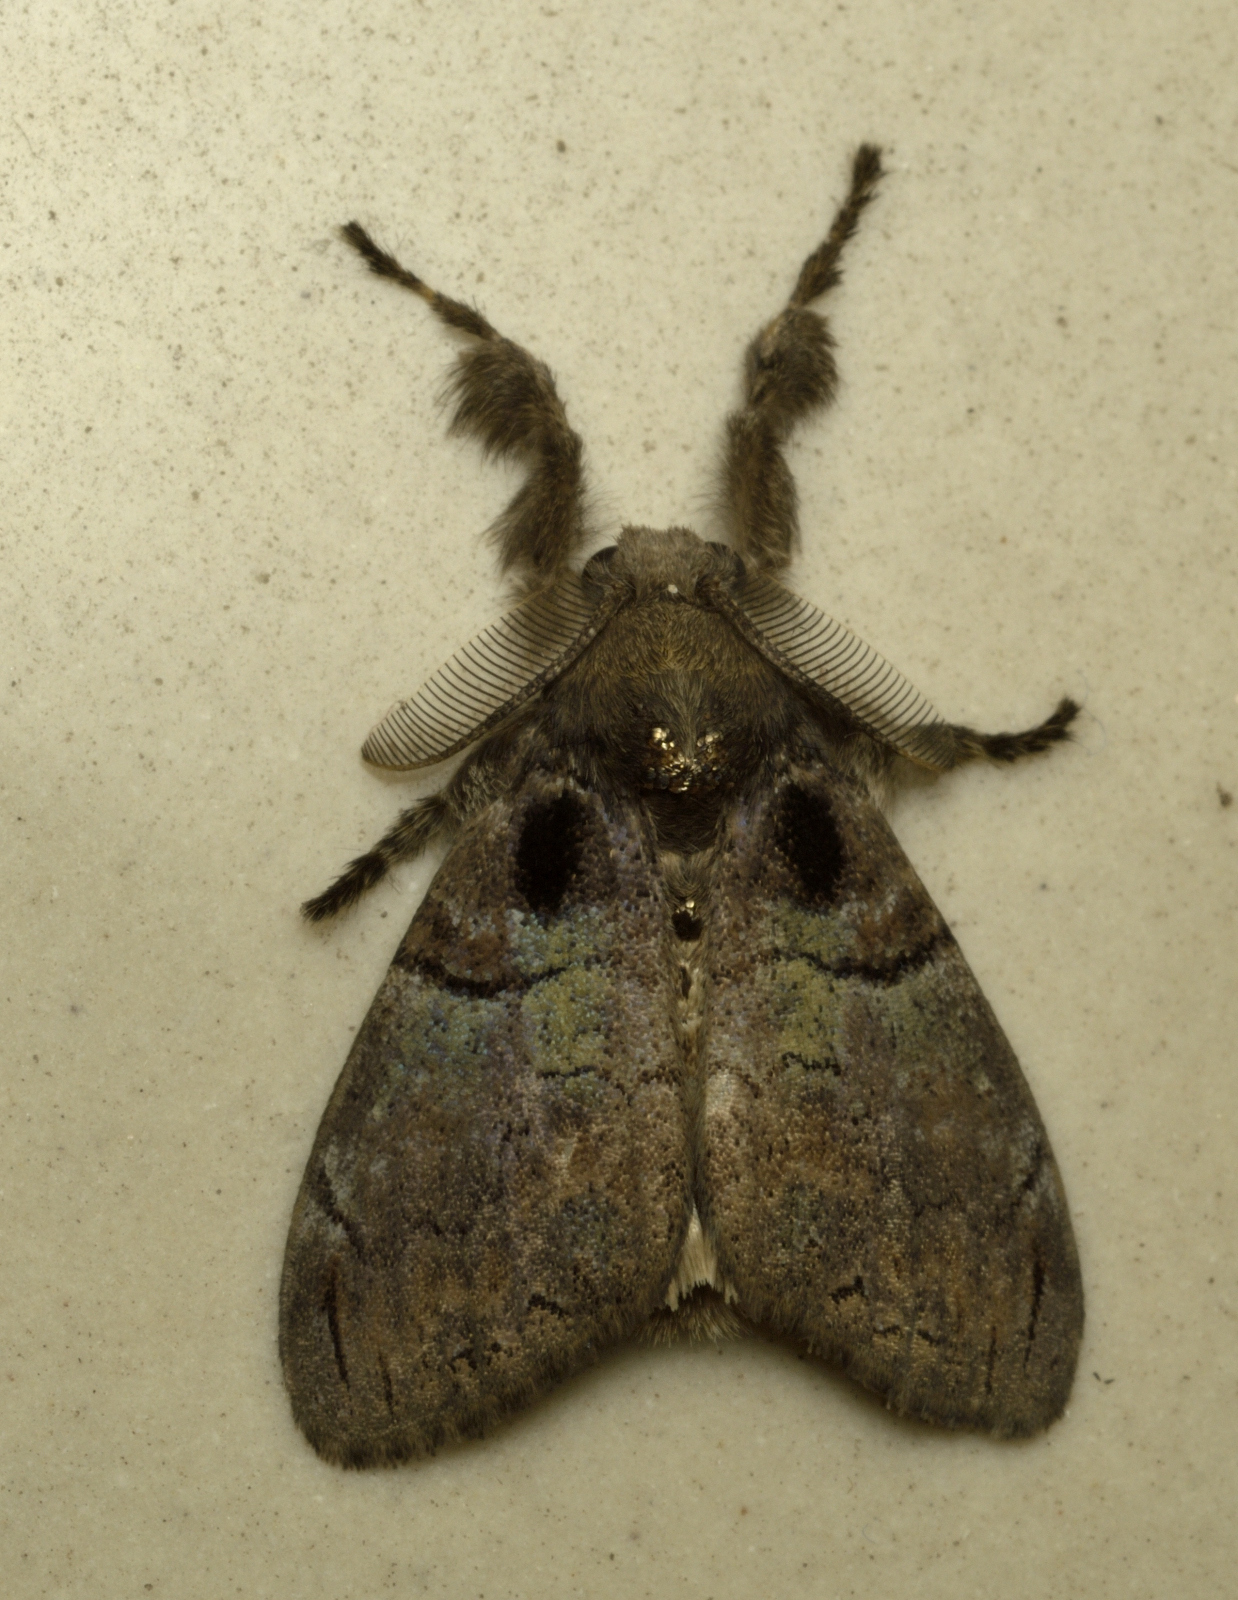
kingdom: Animalia
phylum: Arthropoda
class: Insecta
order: Lepidoptera
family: Erebidae
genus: Olene
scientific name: Olene mendosa
